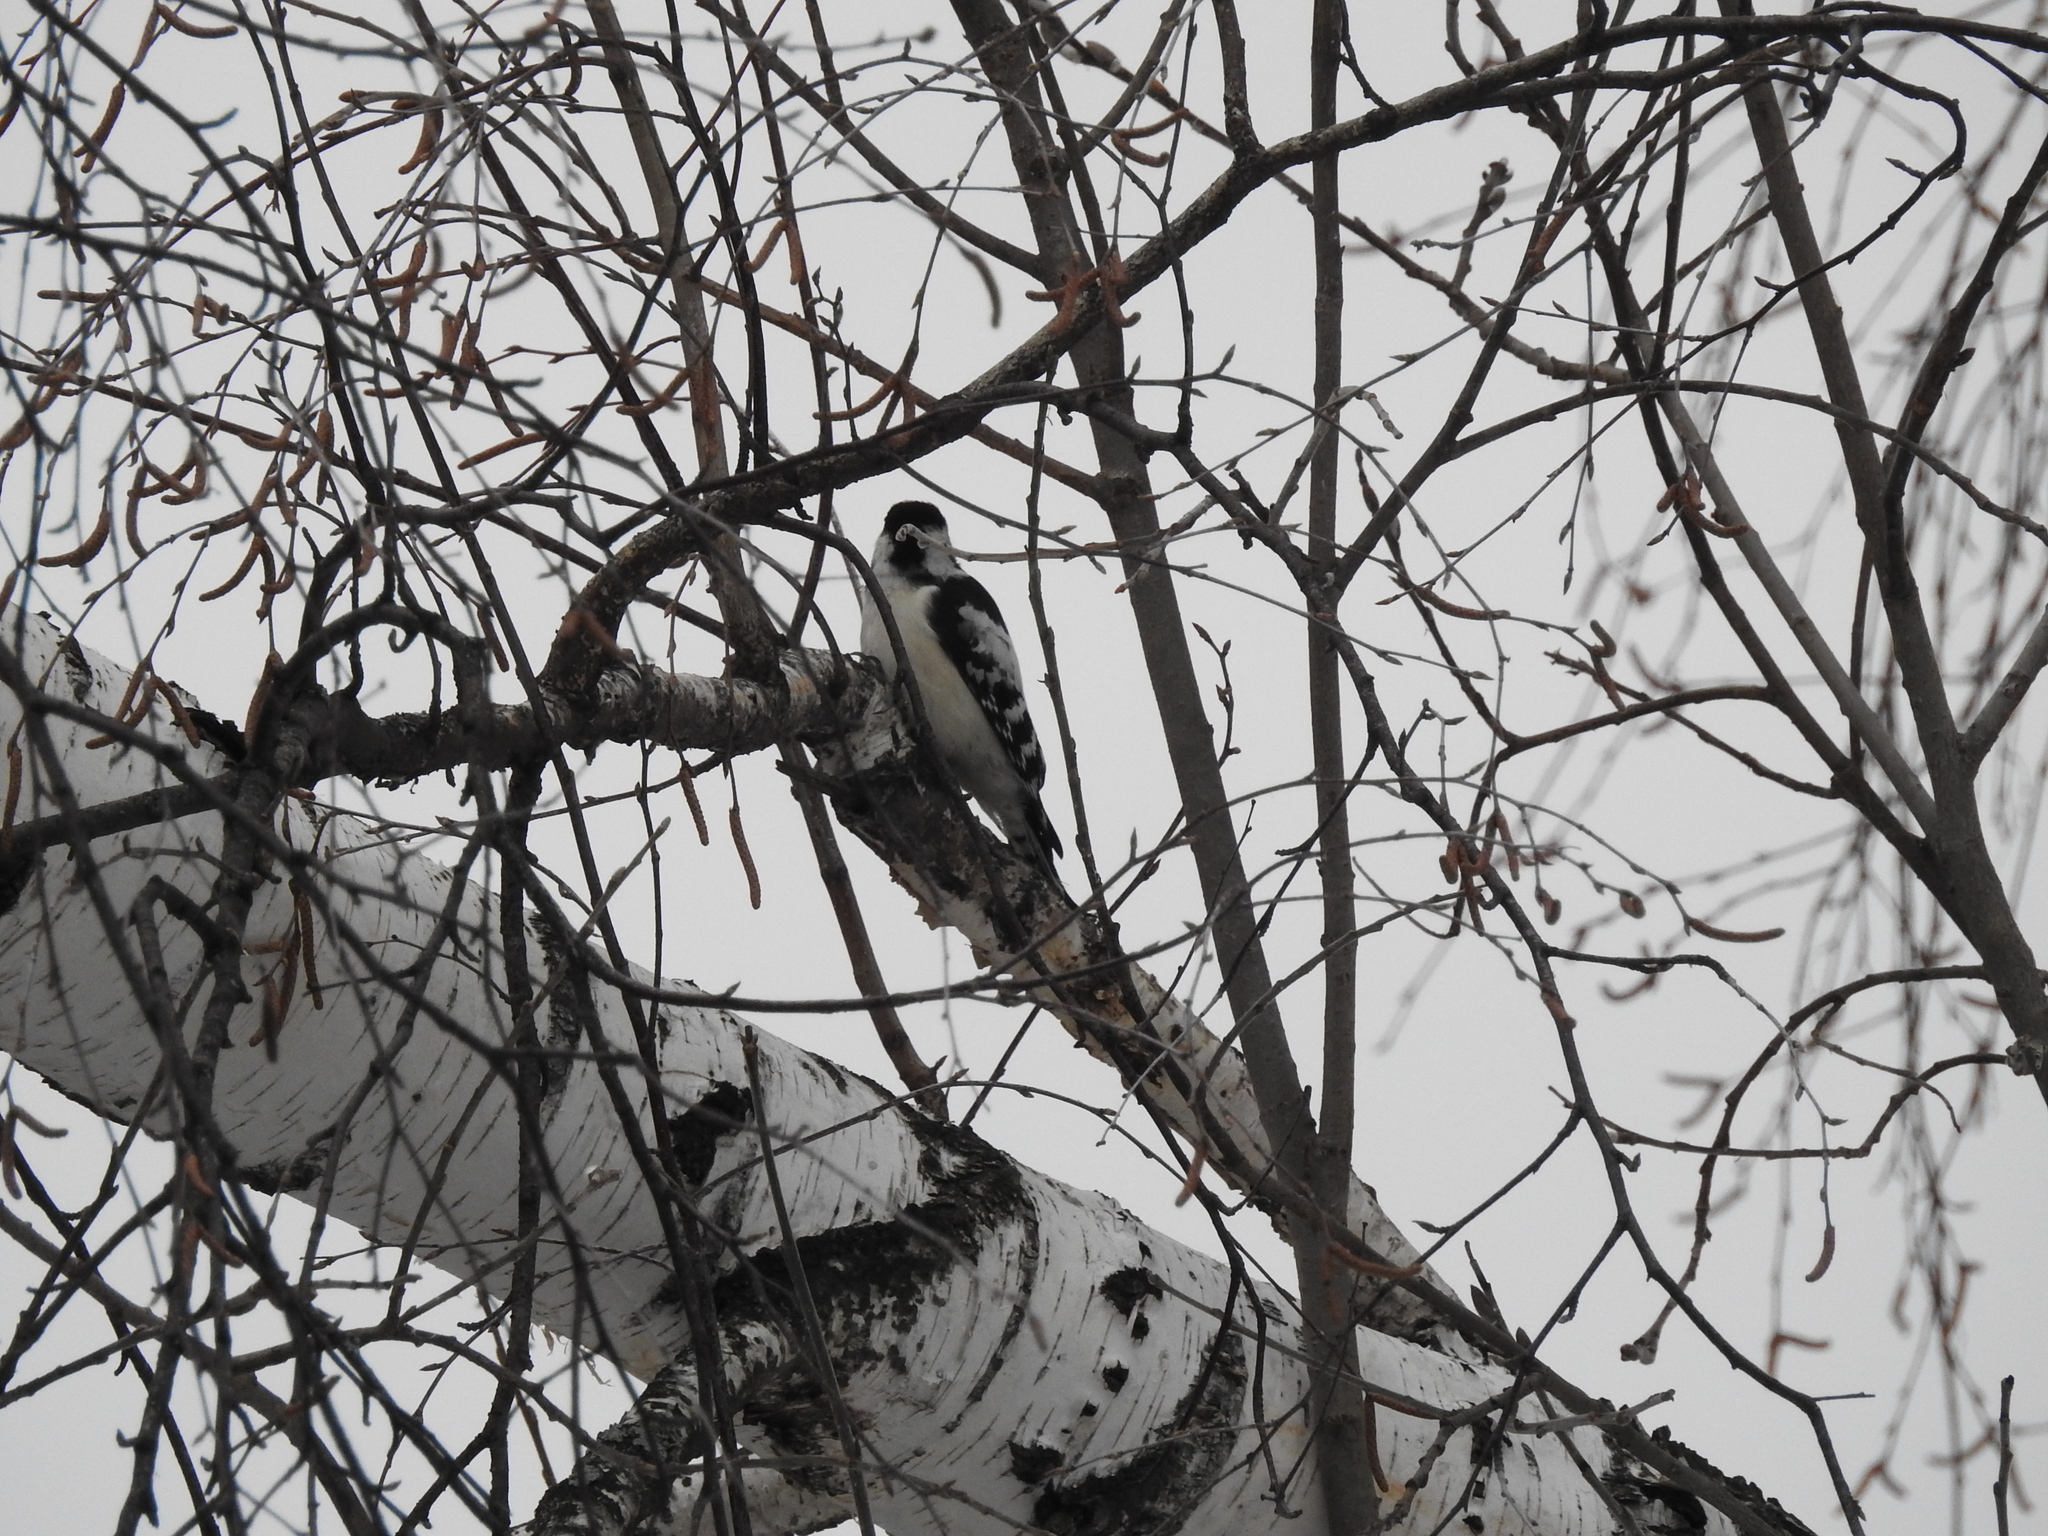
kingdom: Animalia
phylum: Chordata
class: Aves
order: Piciformes
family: Picidae
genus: Dryobates
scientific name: Dryobates minor
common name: Lesser spotted woodpecker
